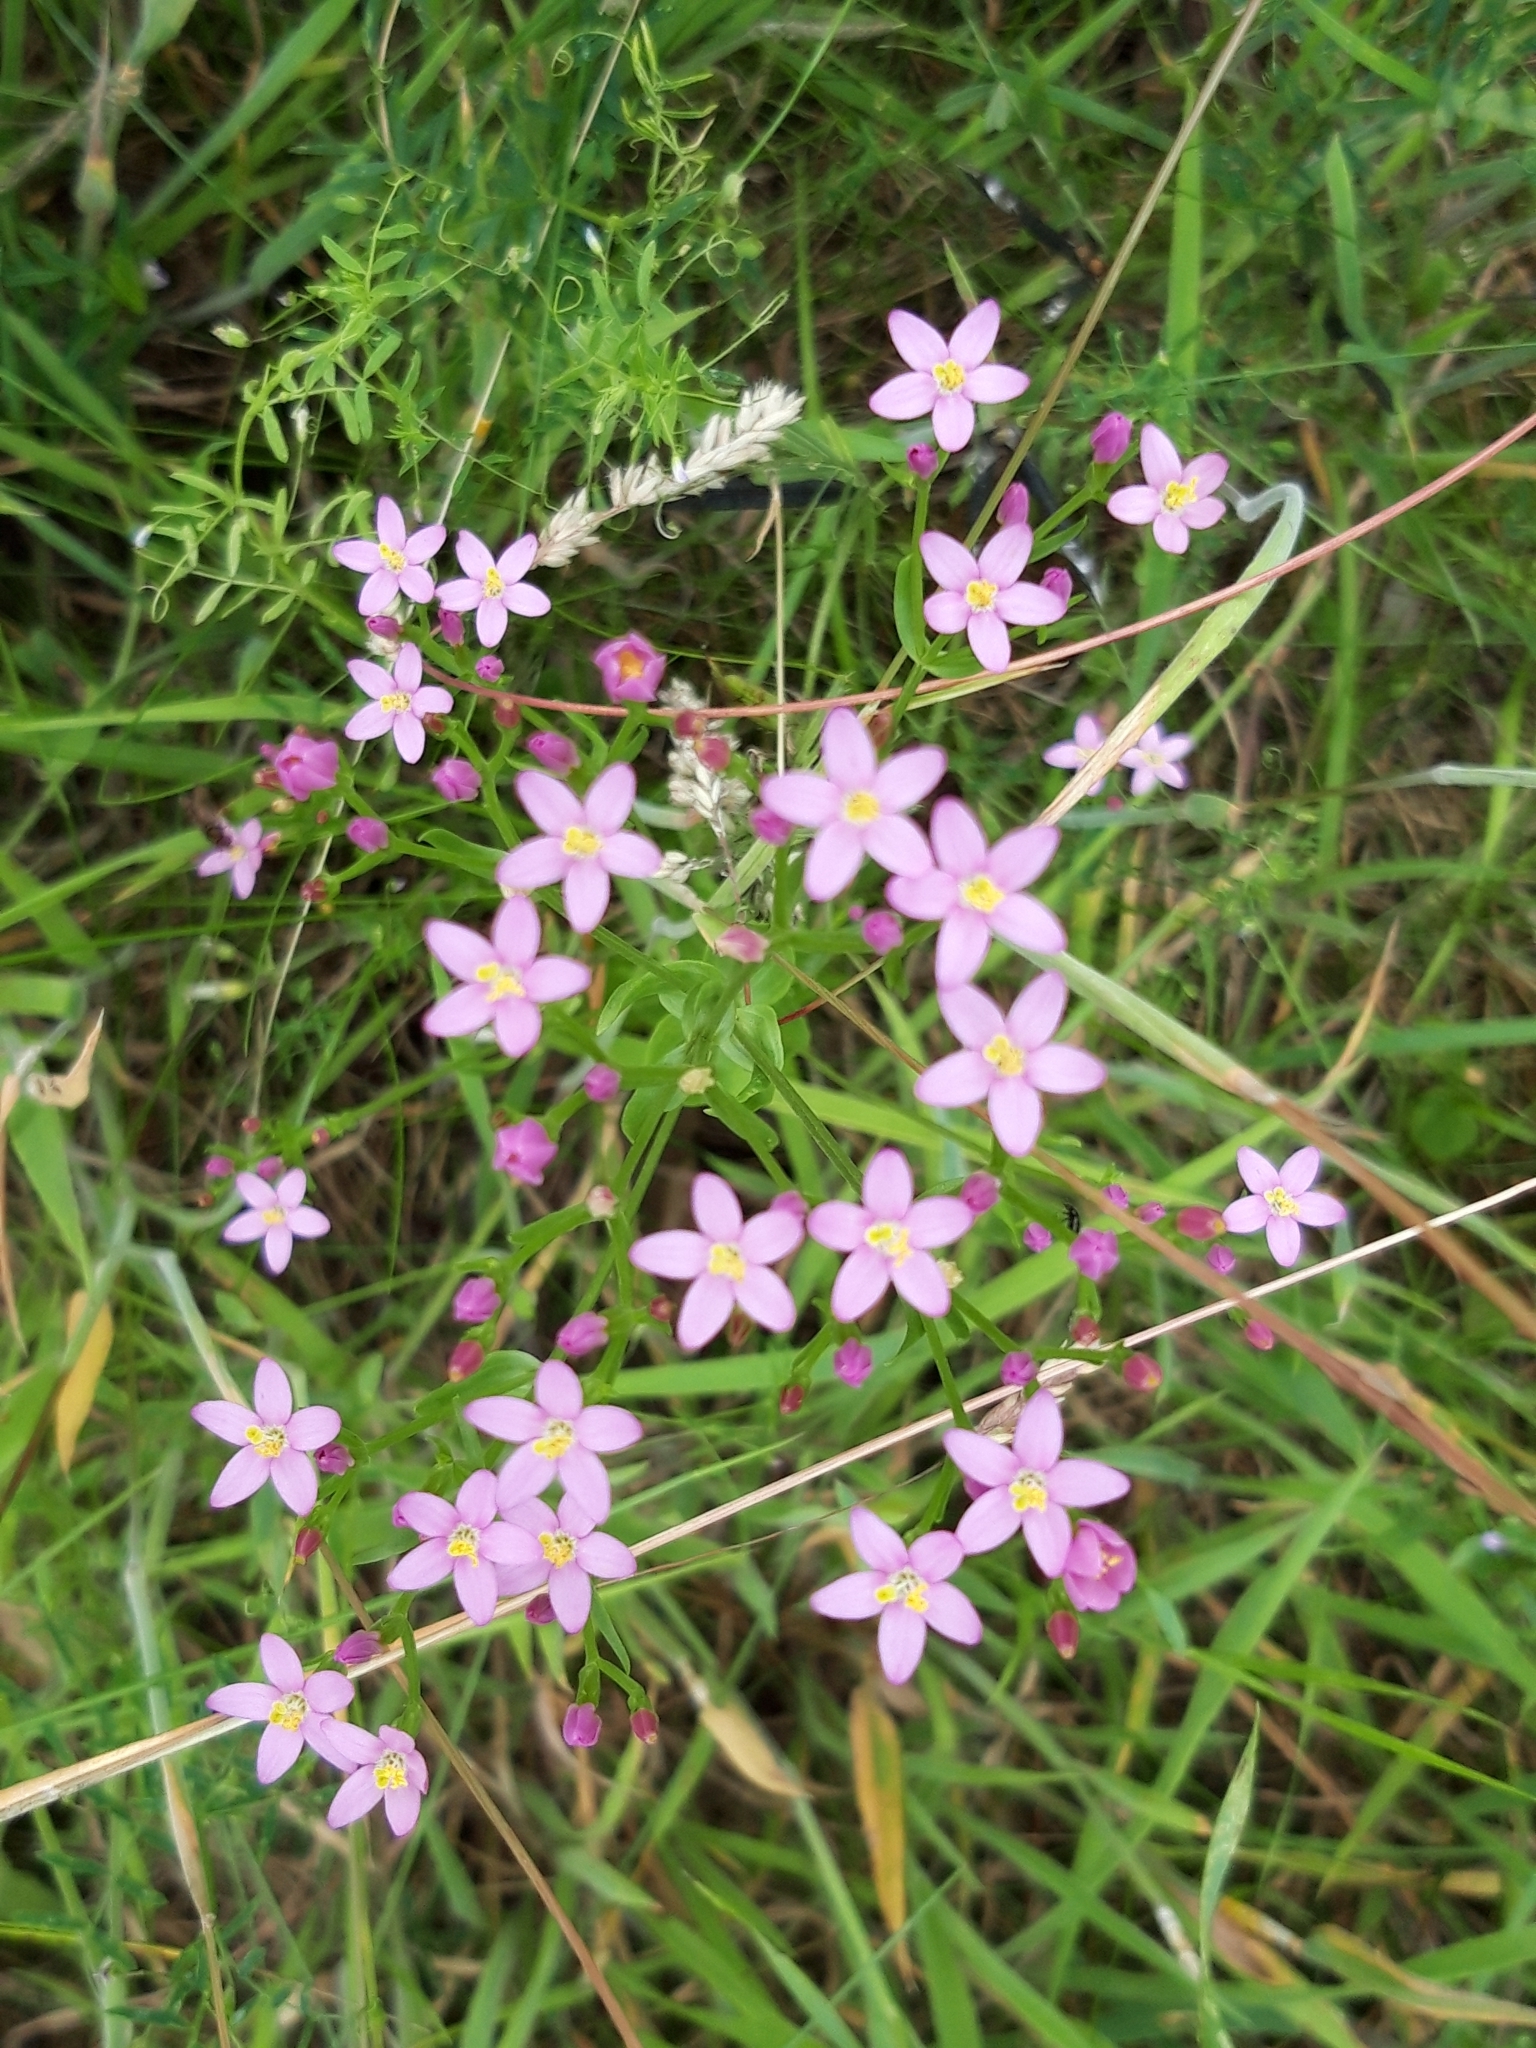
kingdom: Plantae
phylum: Tracheophyta
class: Magnoliopsida
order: Gentianales
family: Gentianaceae
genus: Centaurium
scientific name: Centaurium erythraea
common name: Common centaury
